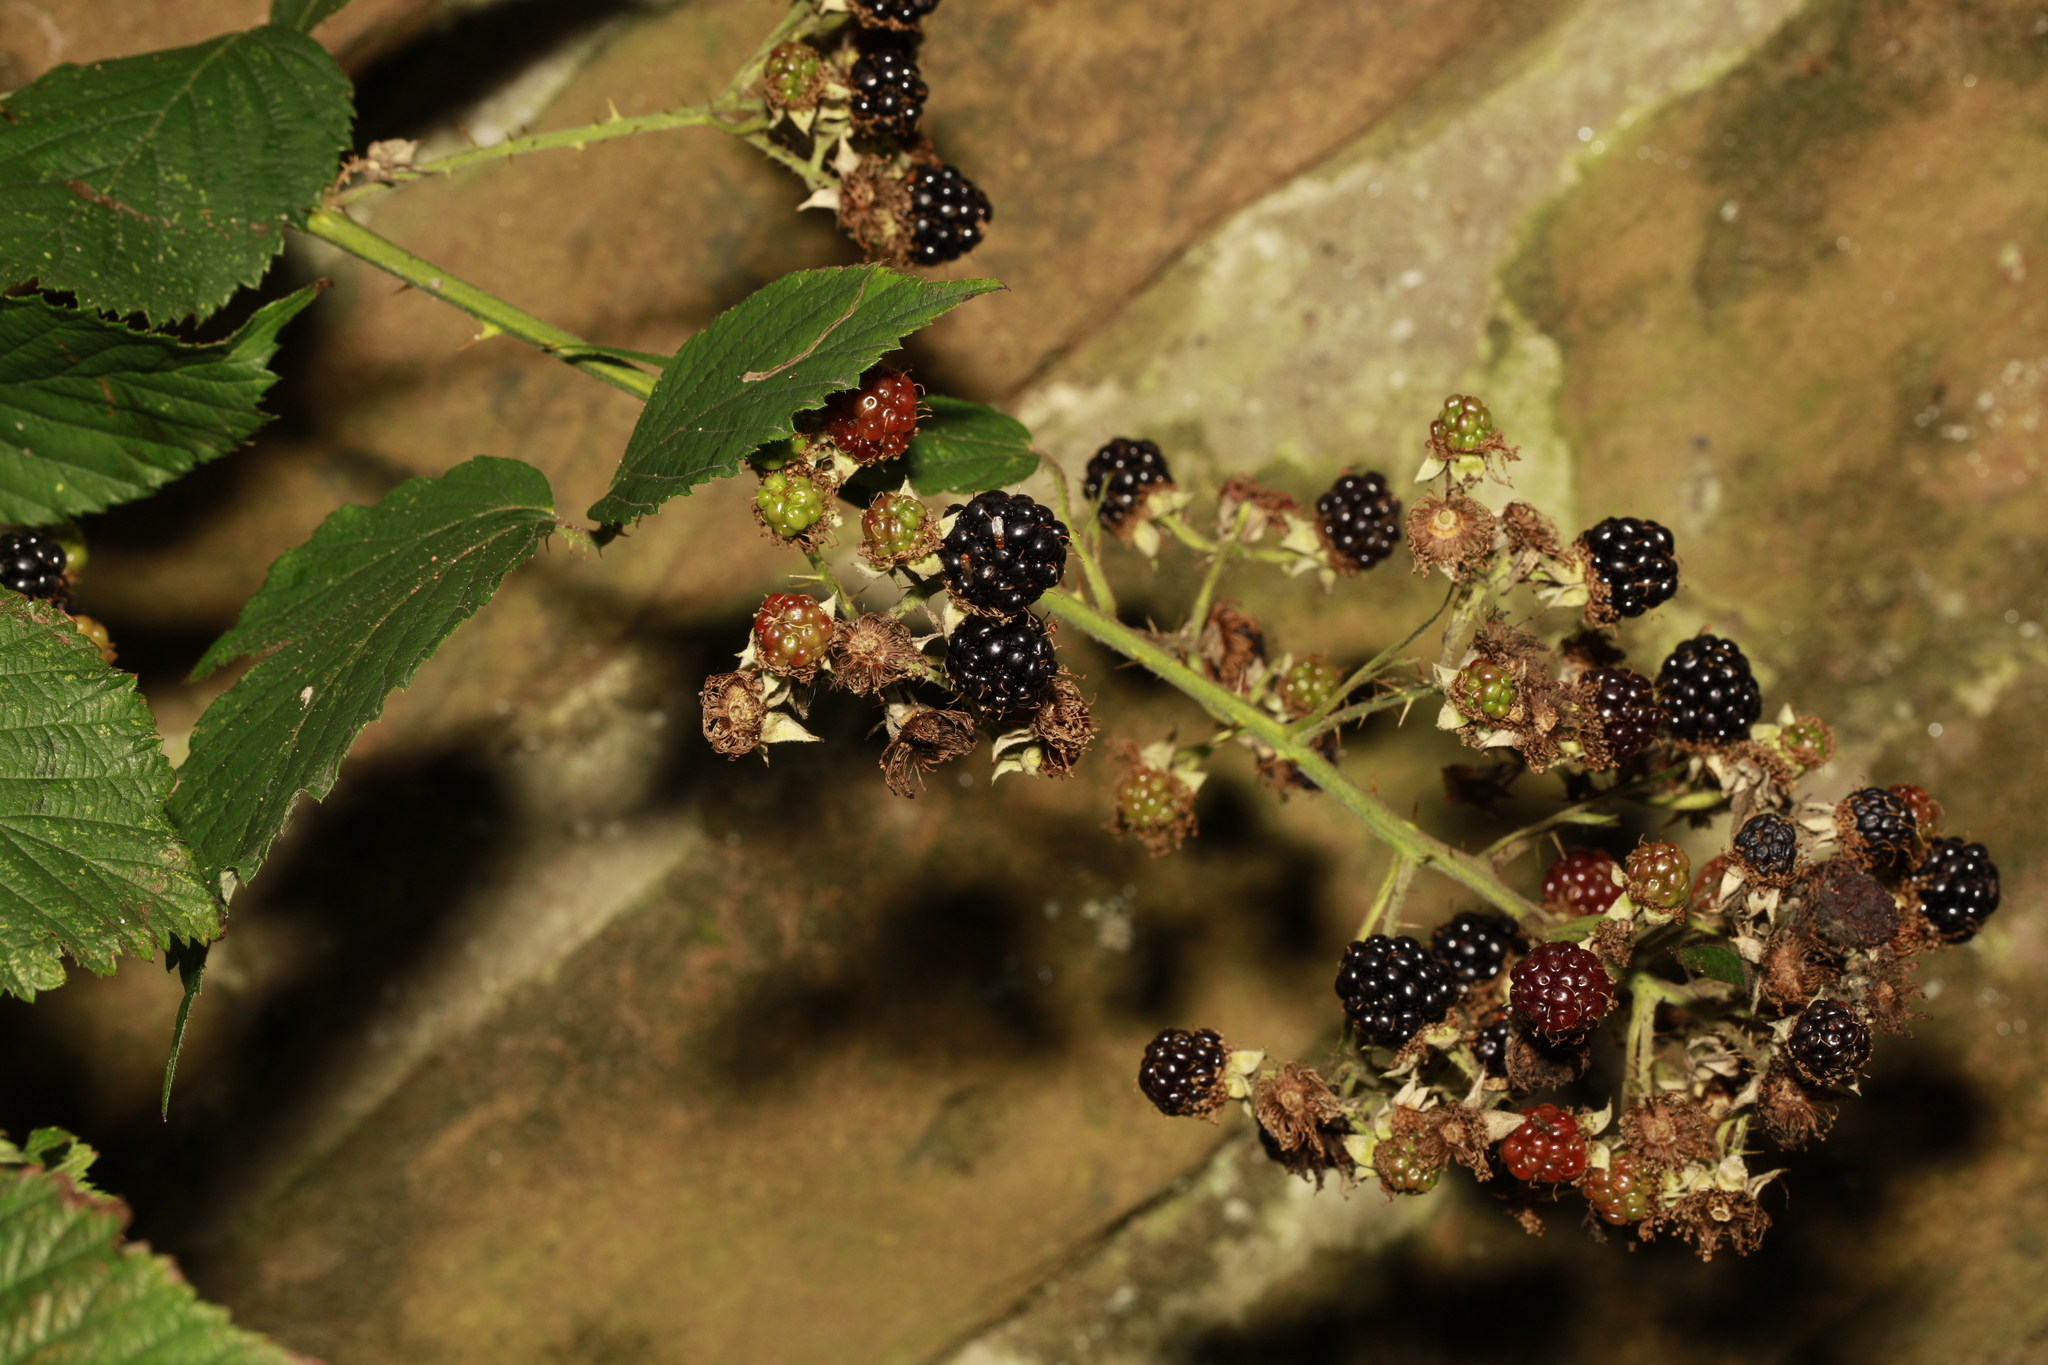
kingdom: Plantae
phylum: Tracheophyta
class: Magnoliopsida
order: Rosales
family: Rosaceae
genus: Rubus
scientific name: Rubus cissburiensis
